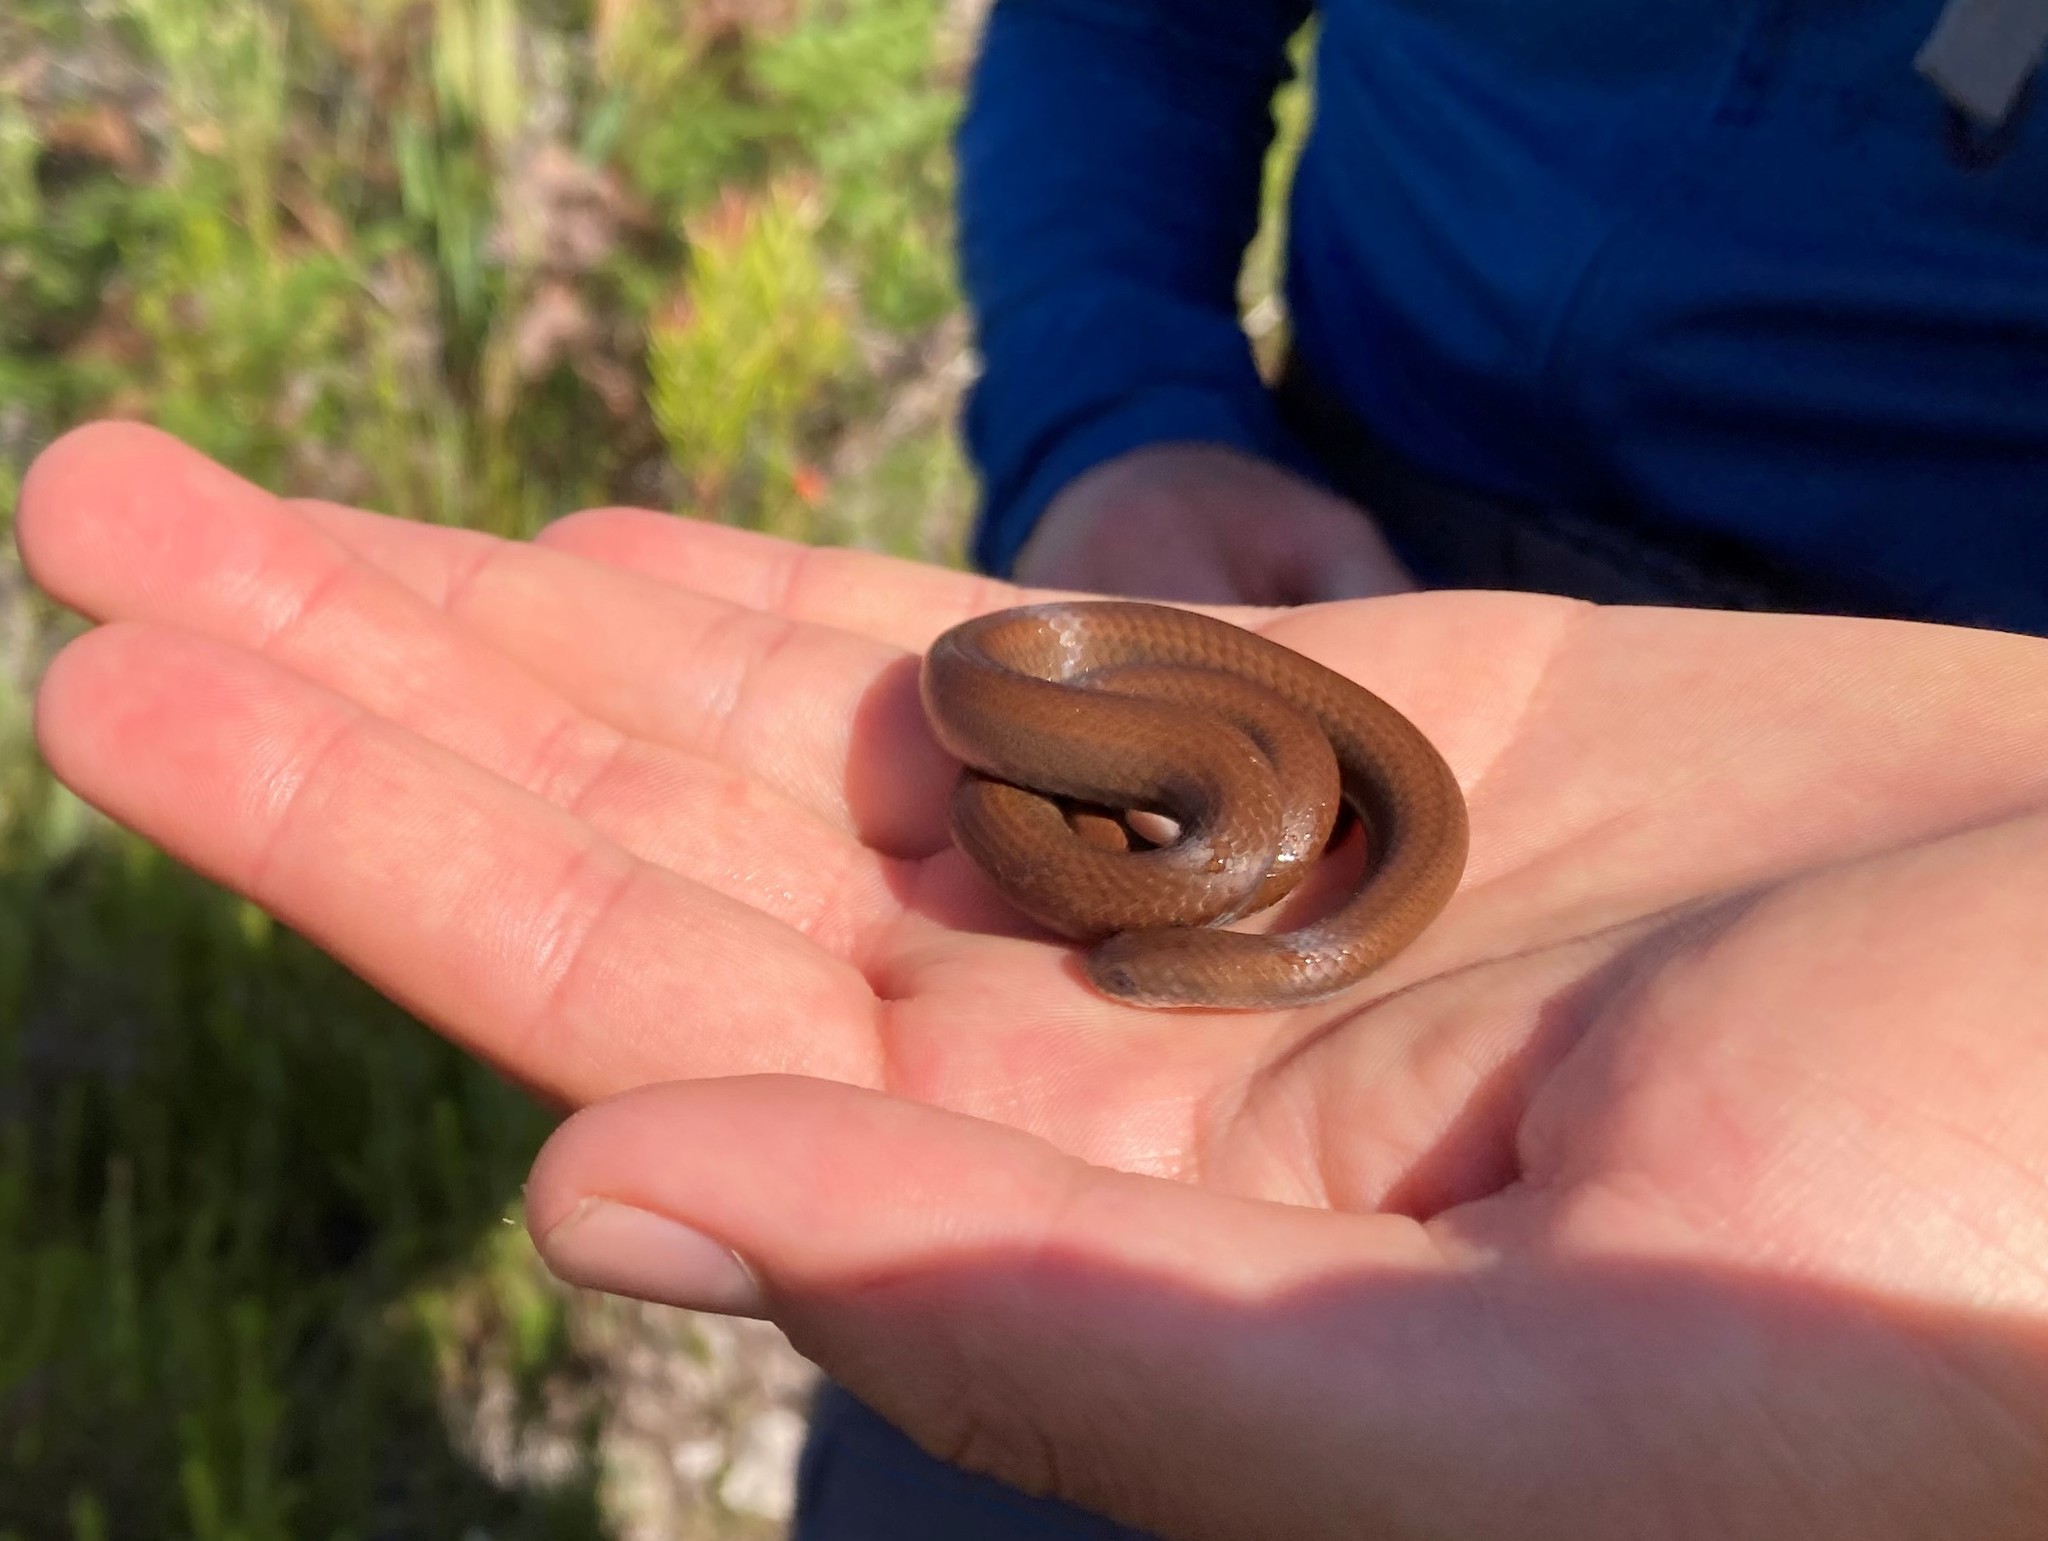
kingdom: Animalia
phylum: Chordata
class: Squamata
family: Pseudoxyrhophiidae
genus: Duberria
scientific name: Duberria lutrix
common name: Common slug eater
